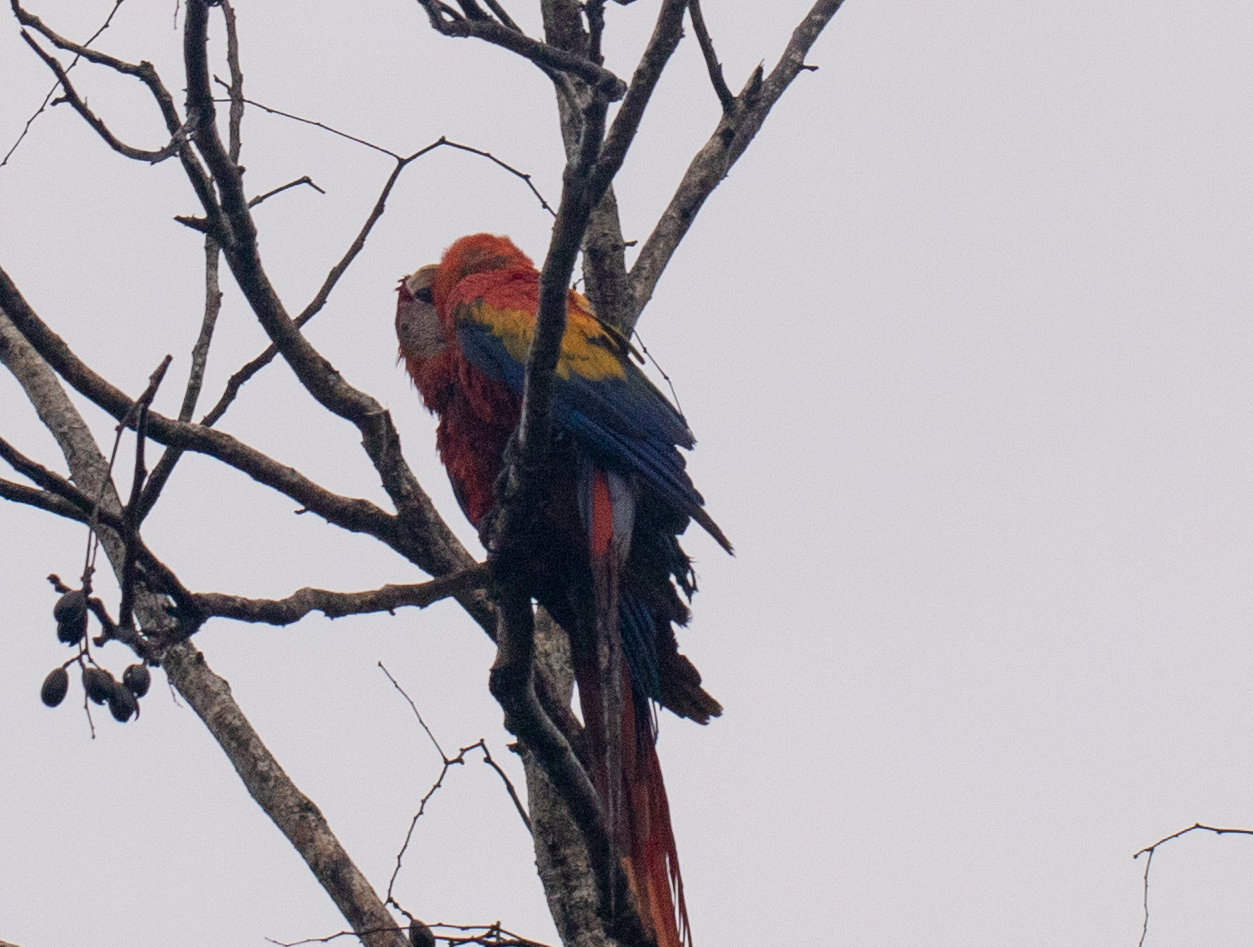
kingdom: Animalia
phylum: Chordata
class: Aves
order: Psittaciformes
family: Psittacidae
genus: Ara
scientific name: Ara macao
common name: Scarlet macaw
